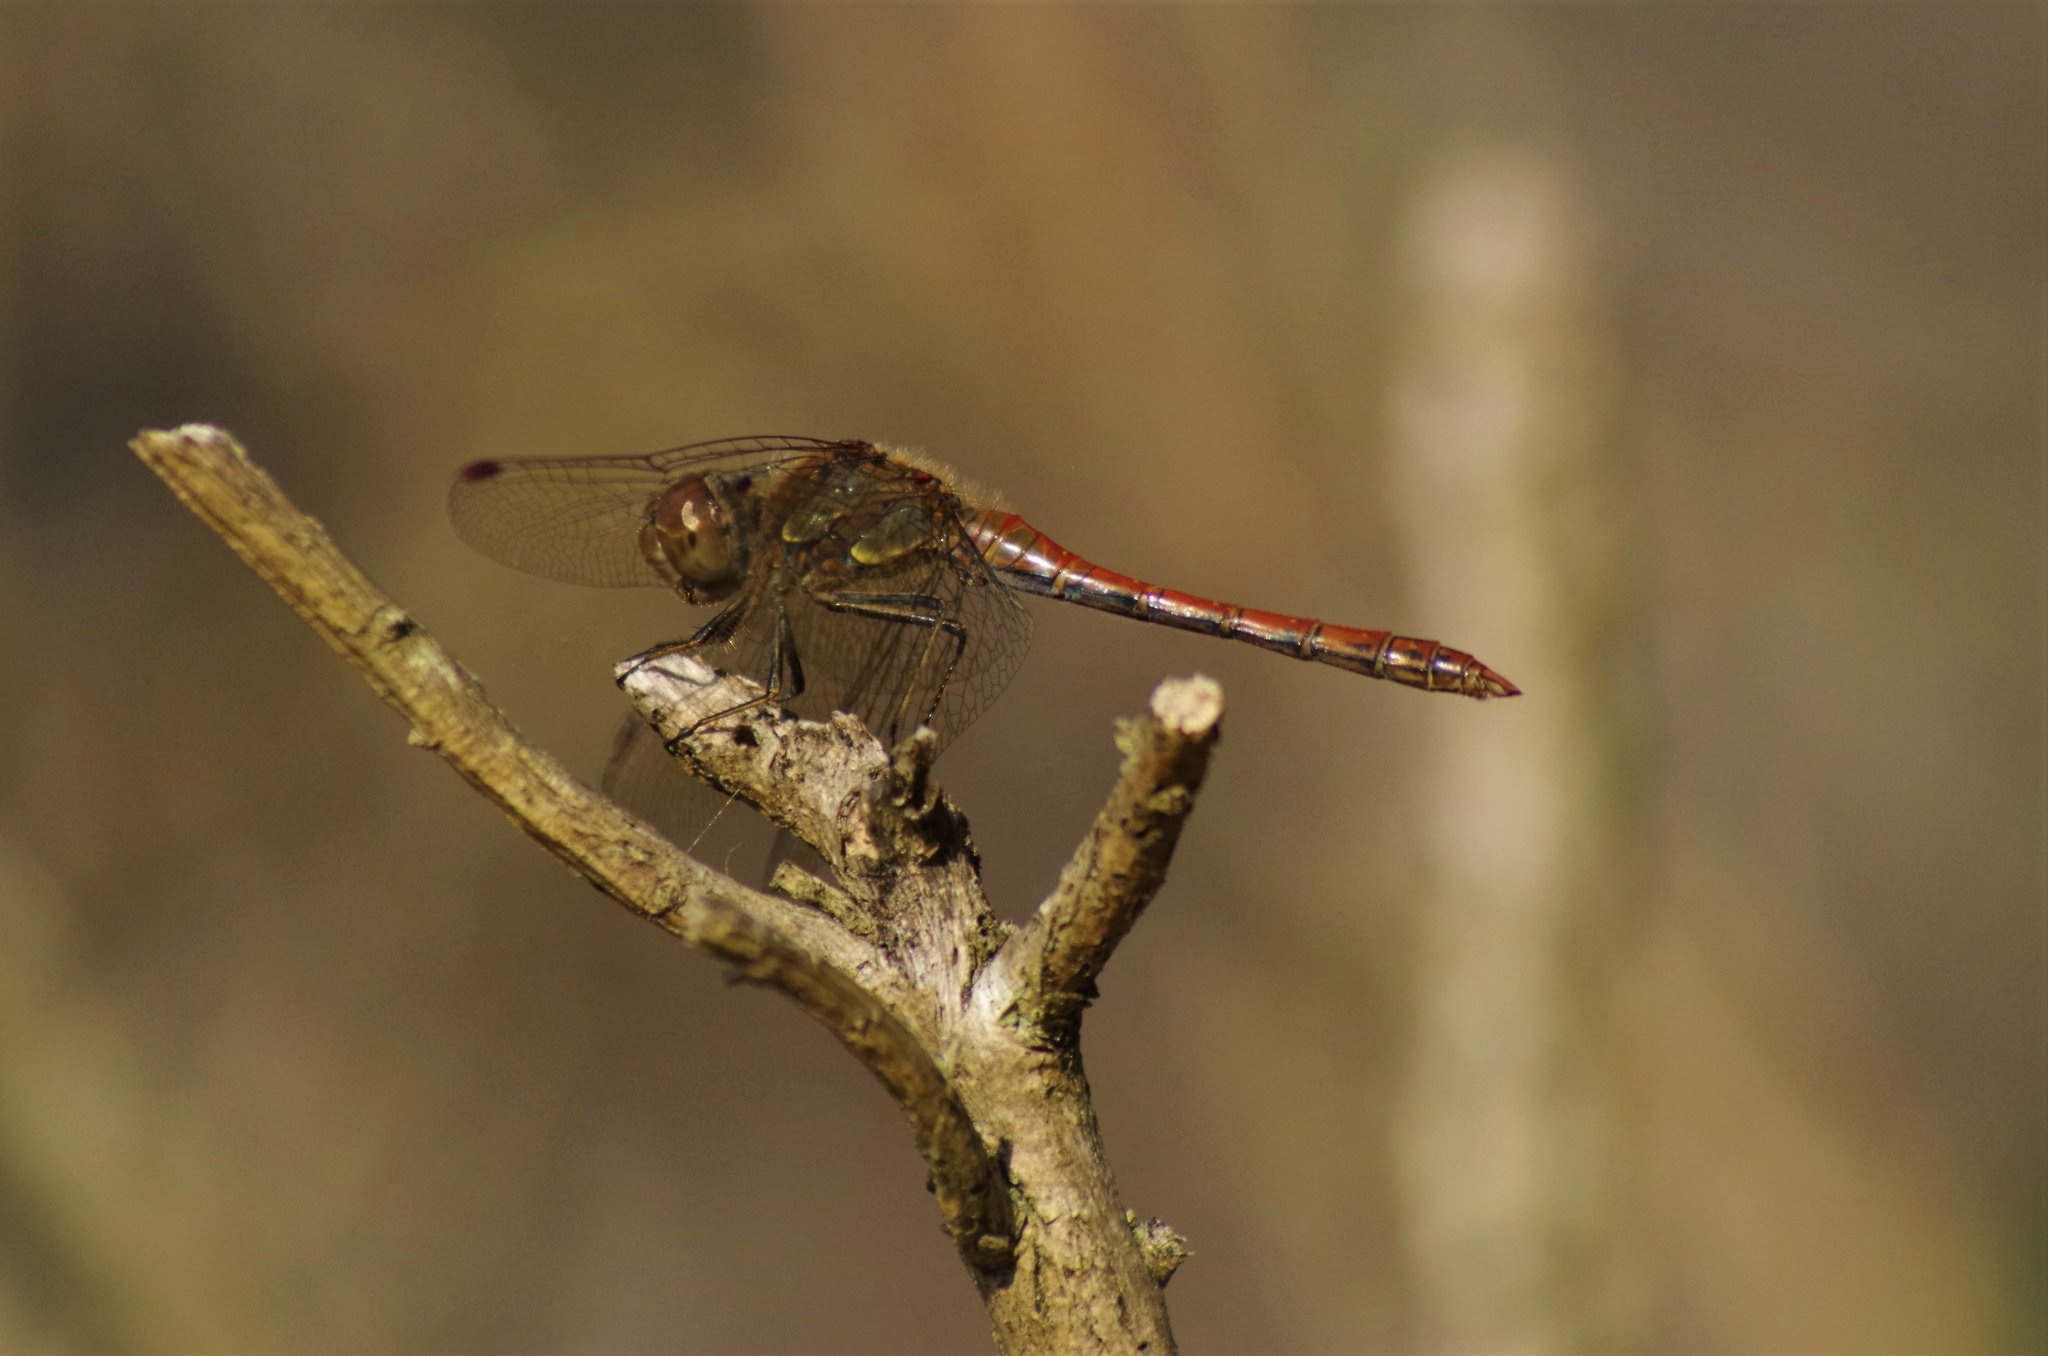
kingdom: Animalia
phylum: Arthropoda
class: Insecta
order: Odonata
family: Libellulidae
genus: Sympetrum
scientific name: Sympetrum striolatum
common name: Common darter
